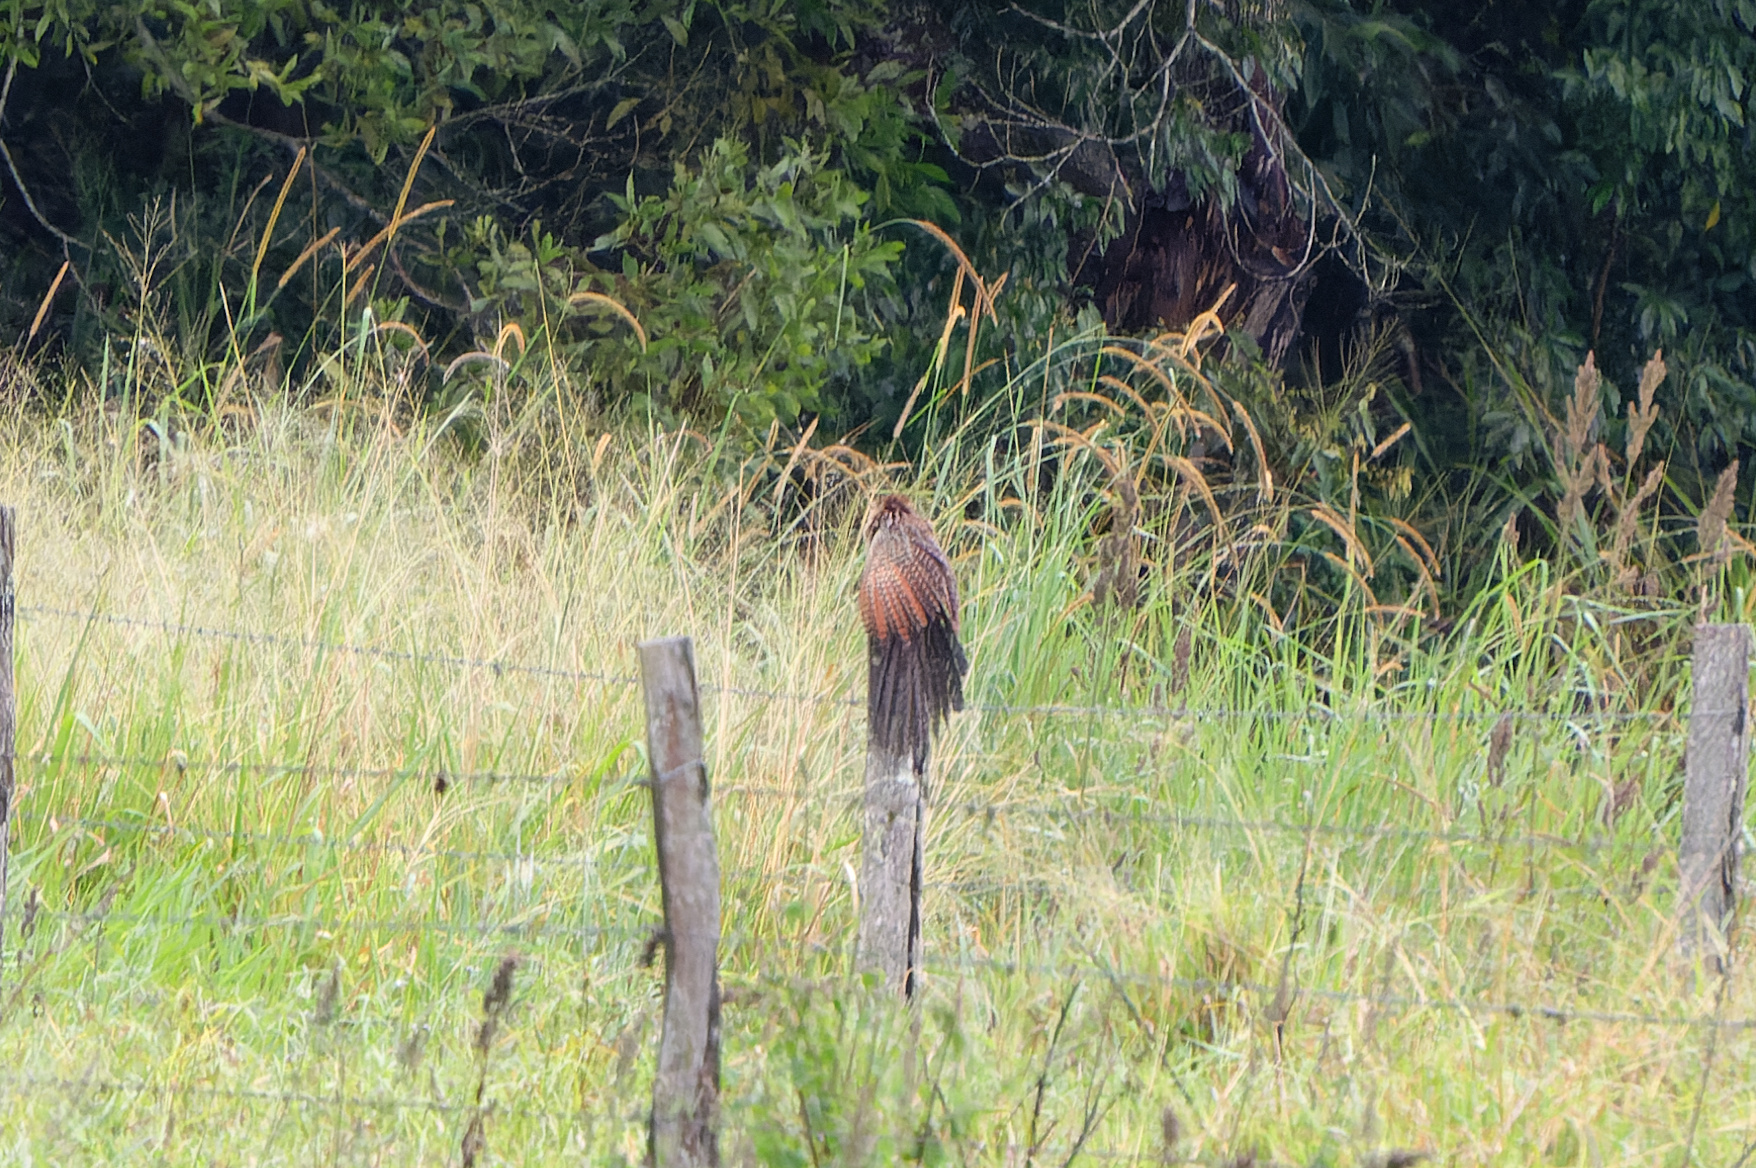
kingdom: Animalia
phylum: Chordata
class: Aves
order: Cuculiformes
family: Cuculidae
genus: Centropus
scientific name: Centropus phasianinus
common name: Pheasant coucal
